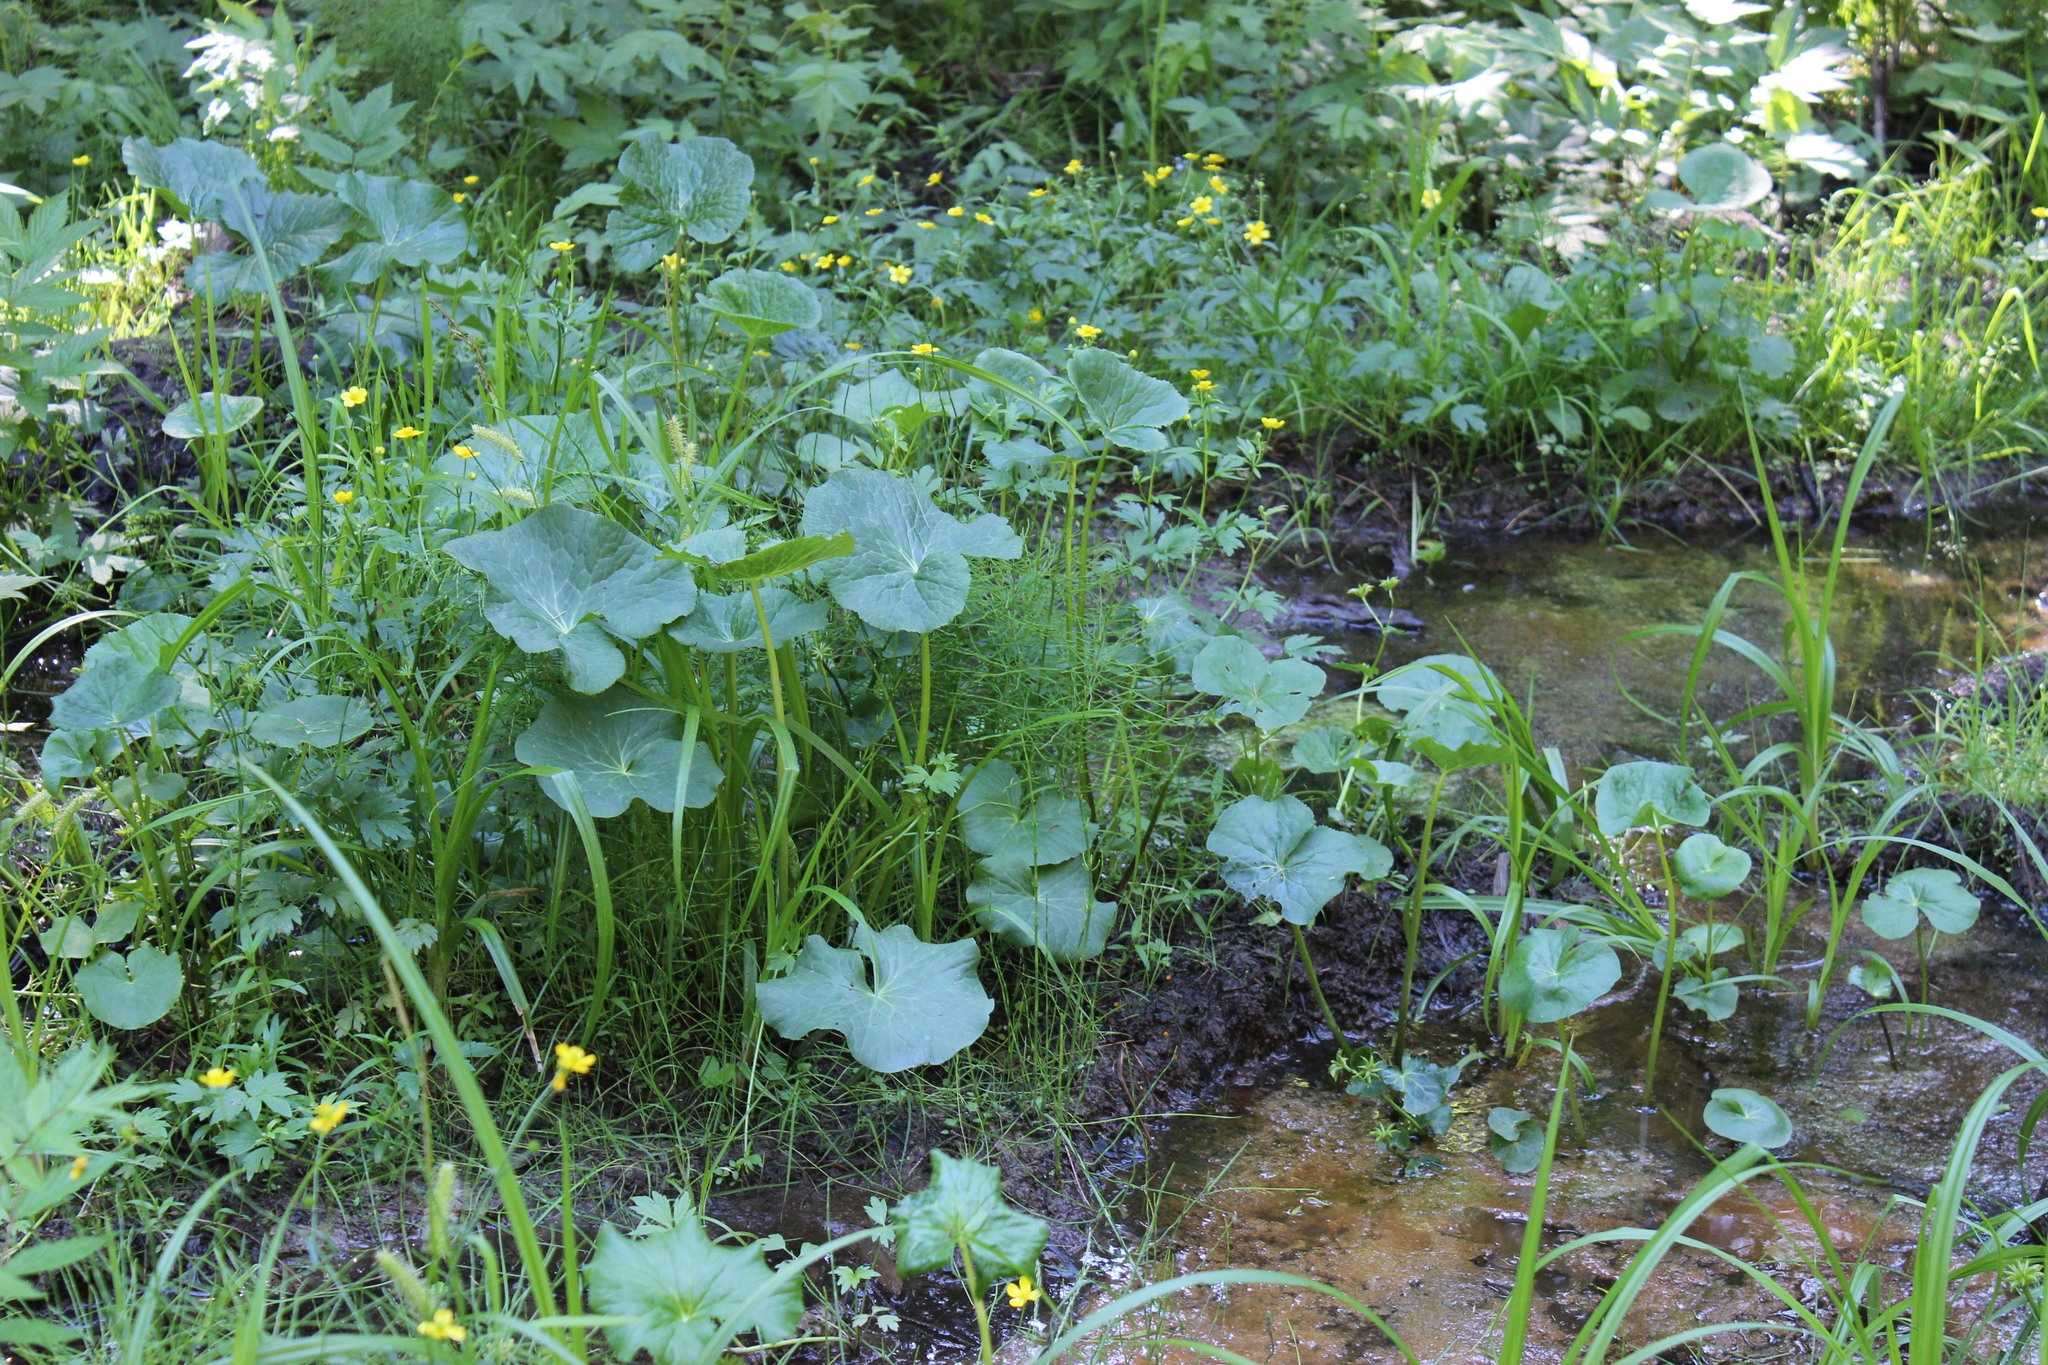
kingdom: Plantae
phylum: Tracheophyta
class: Magnoliopsida
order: Ranunculales
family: Ranunculaceae
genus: Caltha
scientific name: Caltha palustris
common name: Marsh marigold
